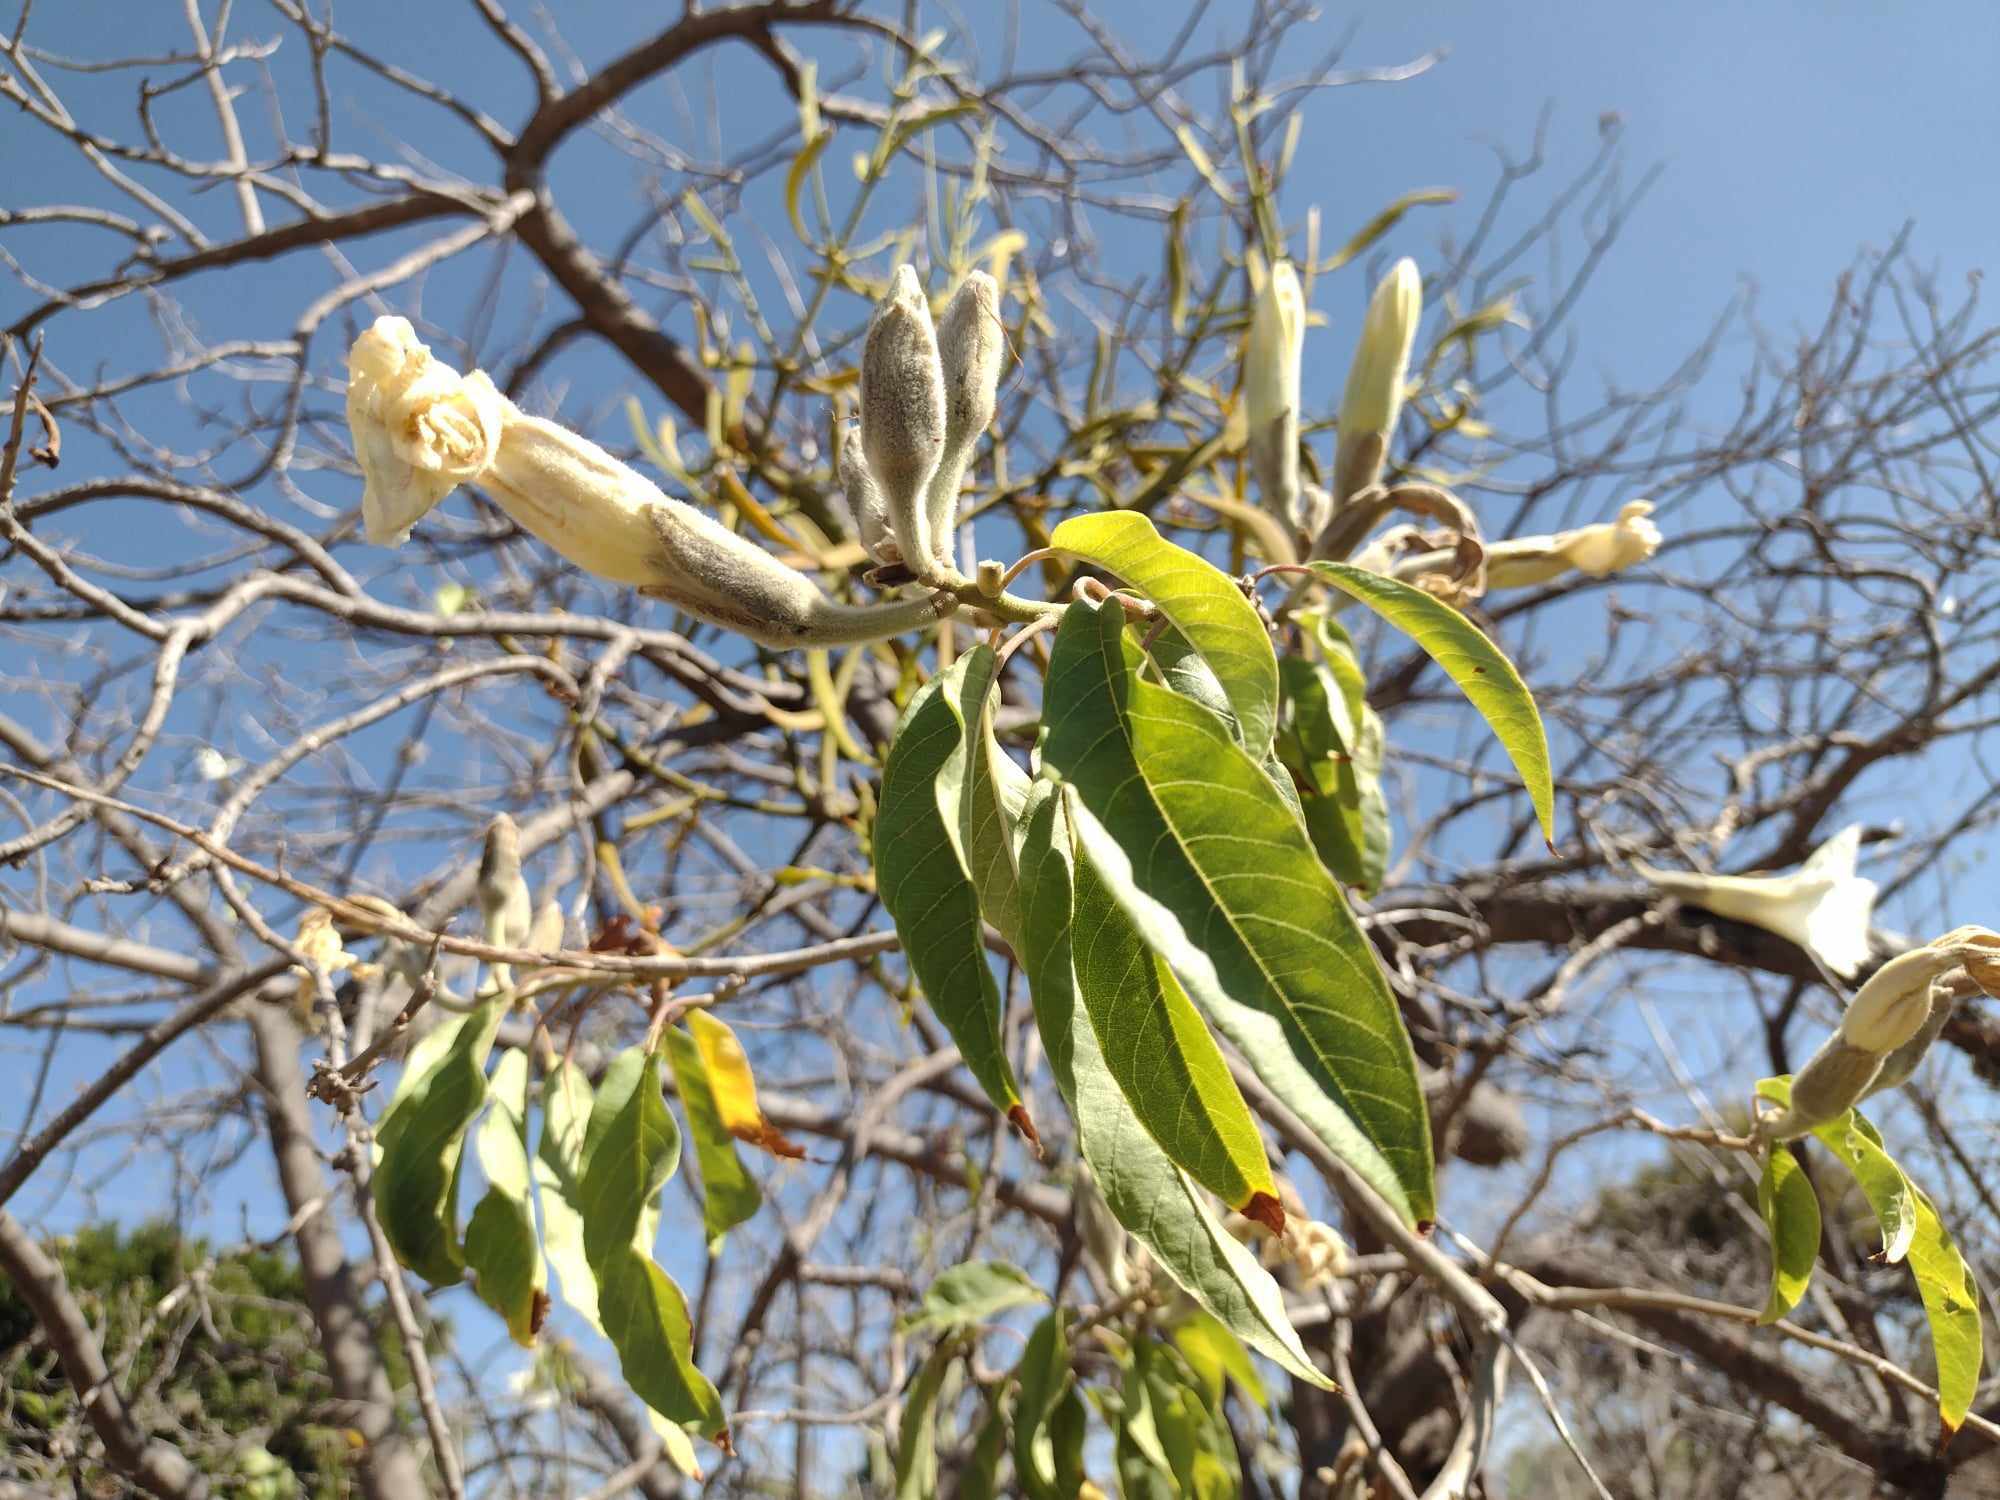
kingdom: Plantae
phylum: Tracheophyta
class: Magnoliopsida
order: Solanales
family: Convolvulaceae
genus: Ipomoea
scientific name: Ipomoea murucoides
